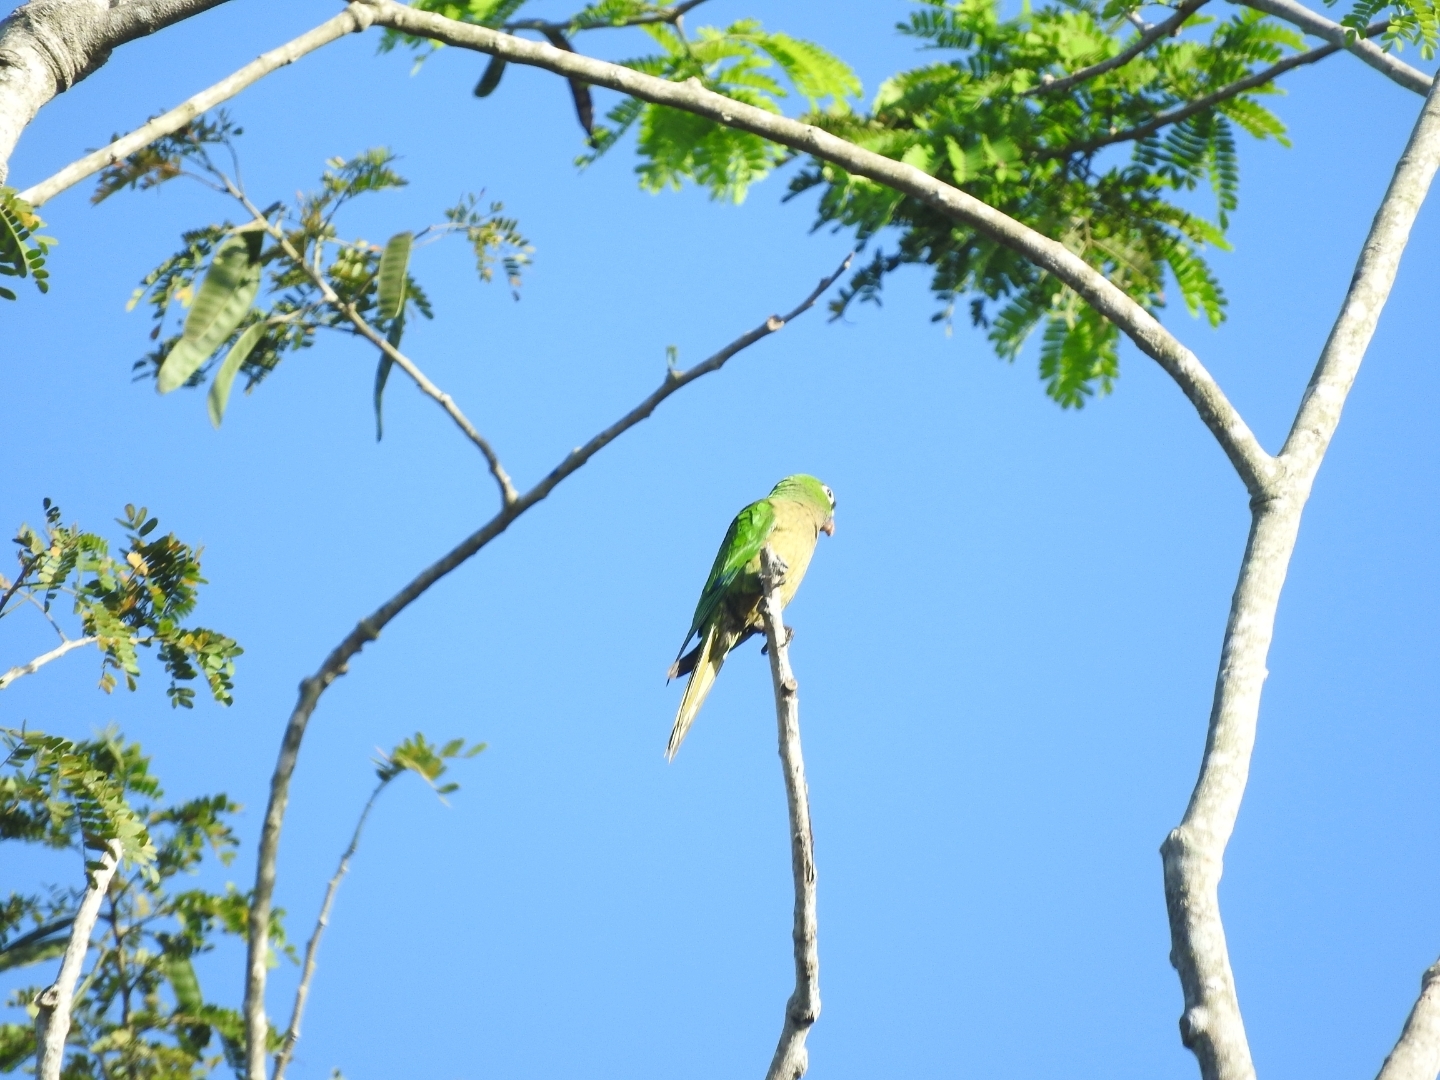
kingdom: Animalia
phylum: Chordata
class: Aves
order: Psittaciformes
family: Psittacidae
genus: Aratinga
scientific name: Aratinga nana
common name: Olive-throated parakeet
